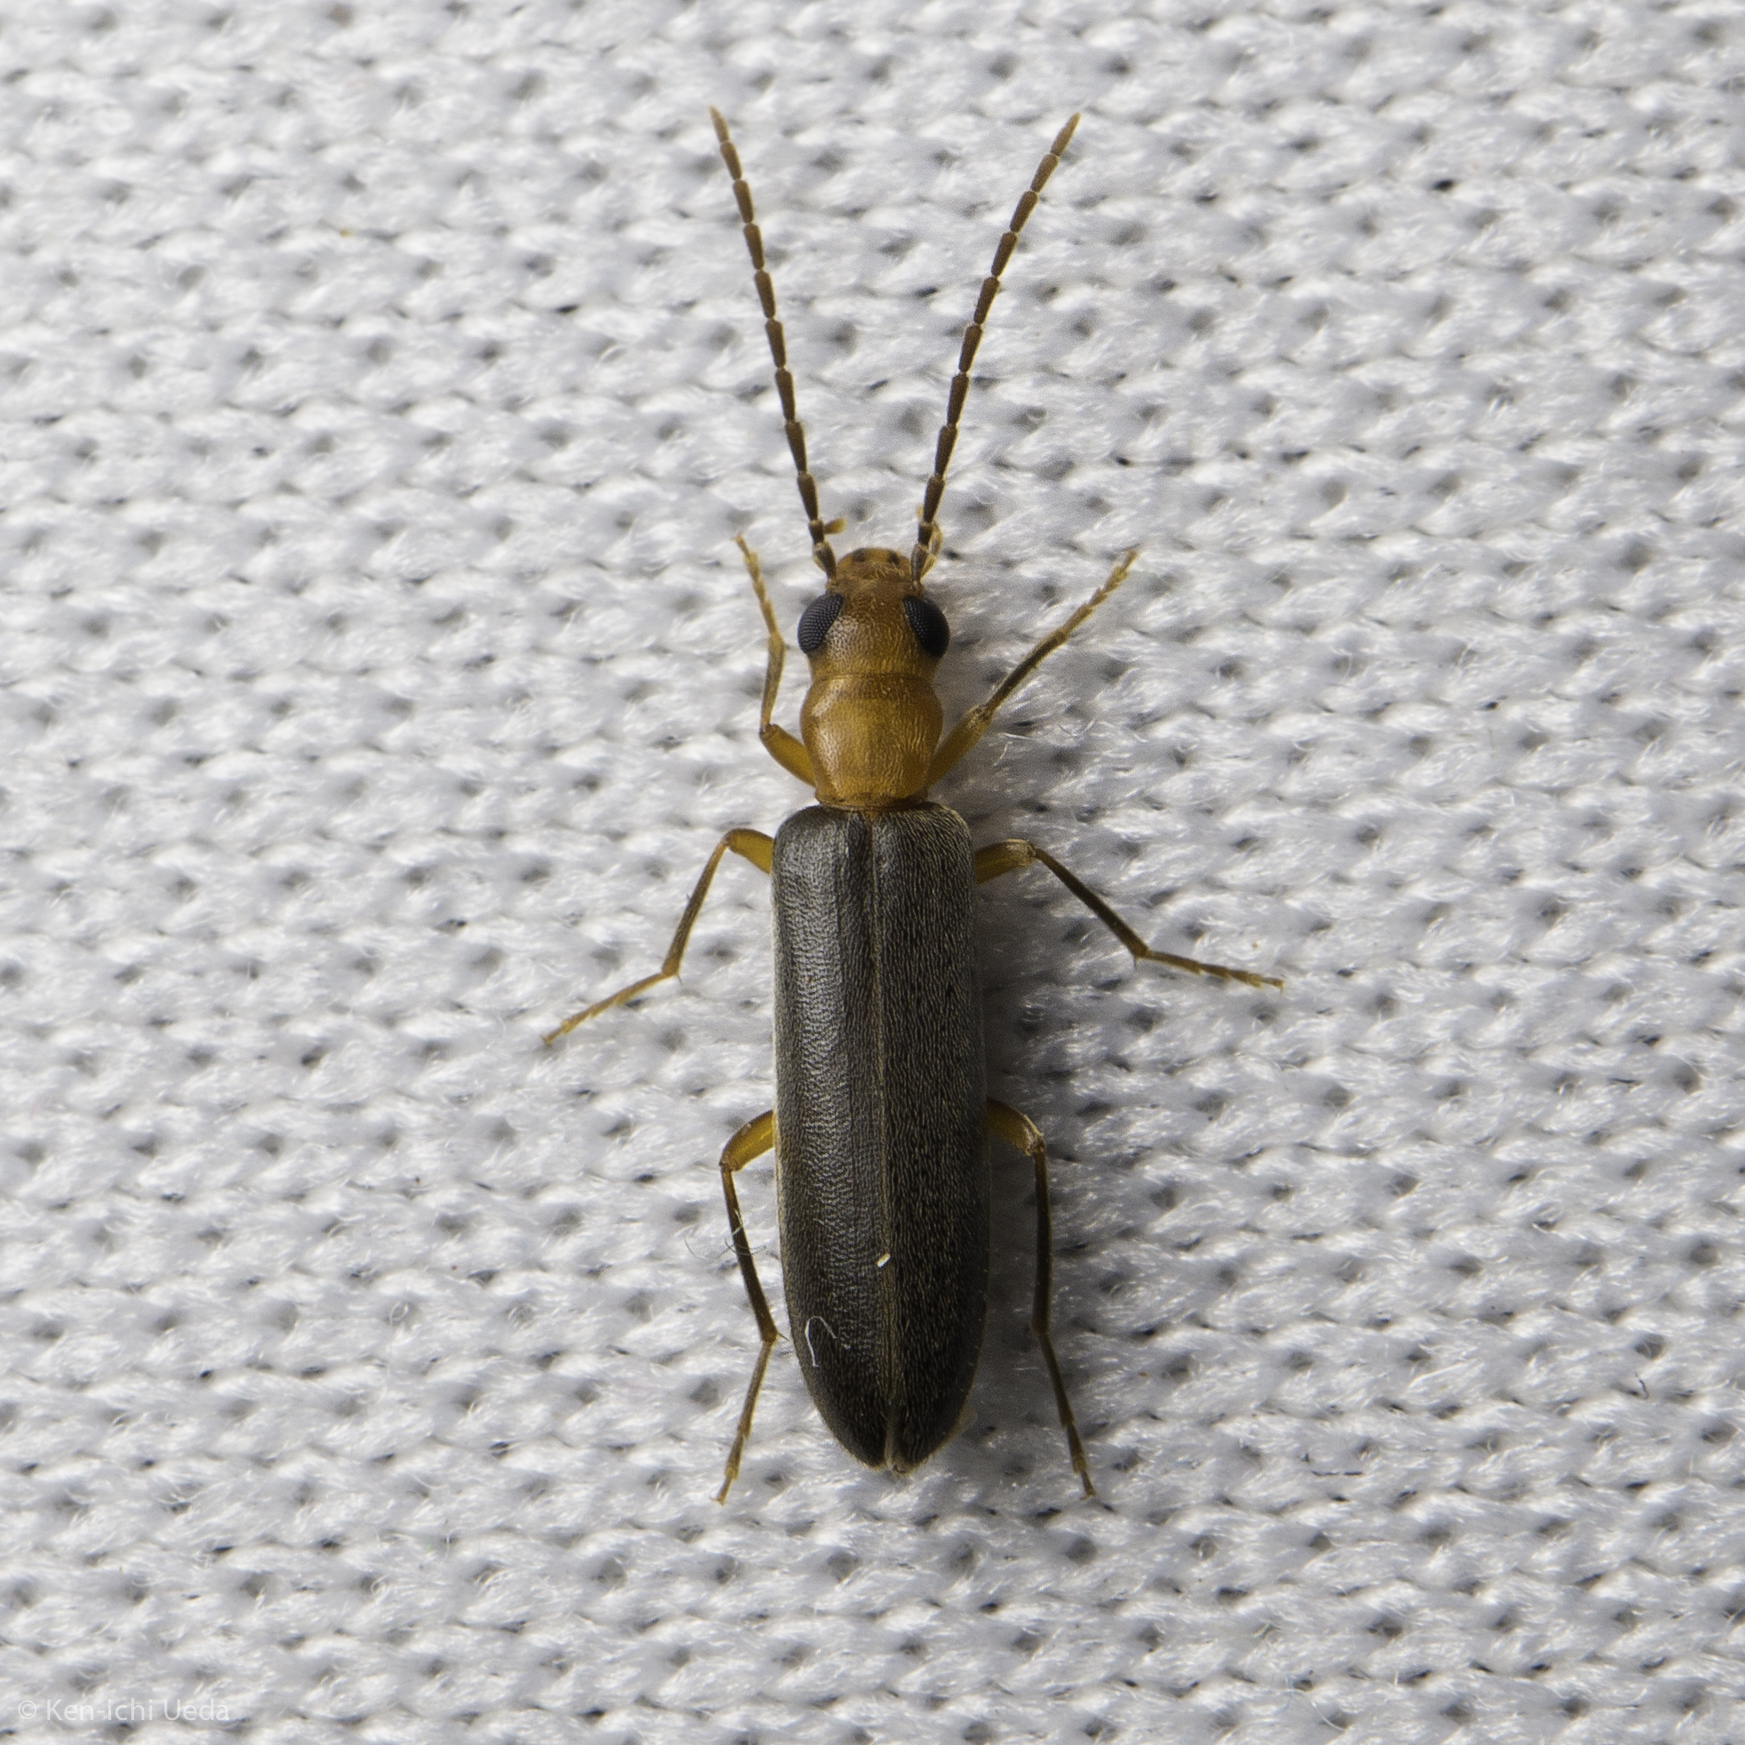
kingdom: Animalia
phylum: Arthropoda
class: Insecta
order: Coleoptera
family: Oedemeridae
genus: Xanthochroina
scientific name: Xanthochroina bicolor
